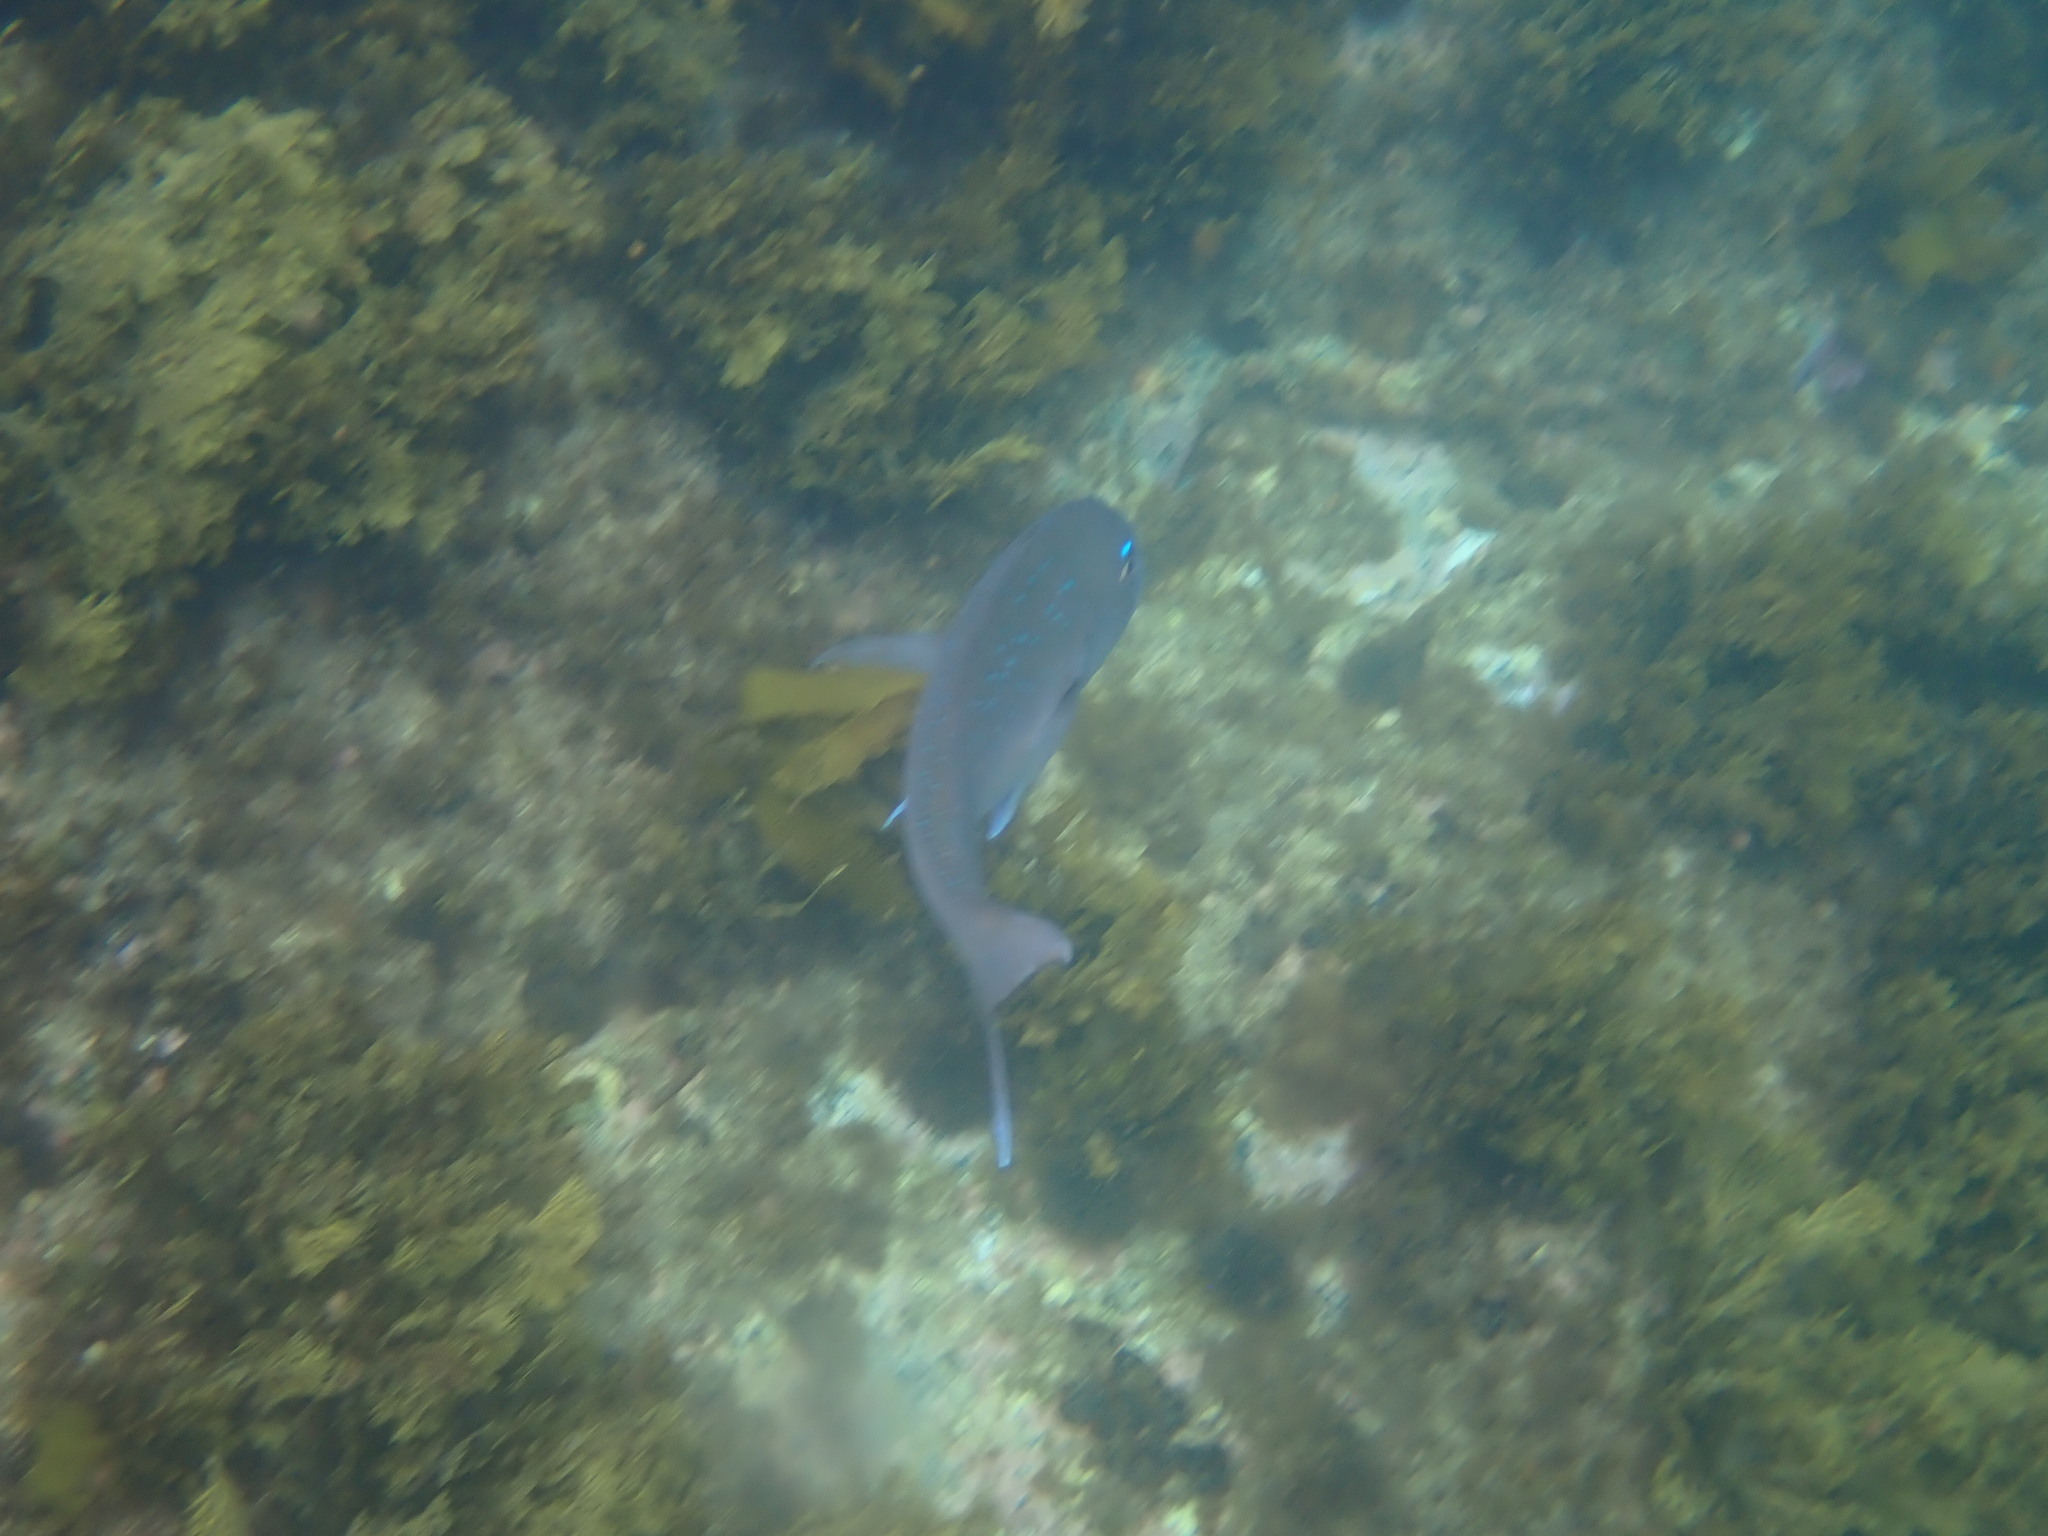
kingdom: Animalia
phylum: Chordata
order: Perciformes
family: Sparidae
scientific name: Sparidae
